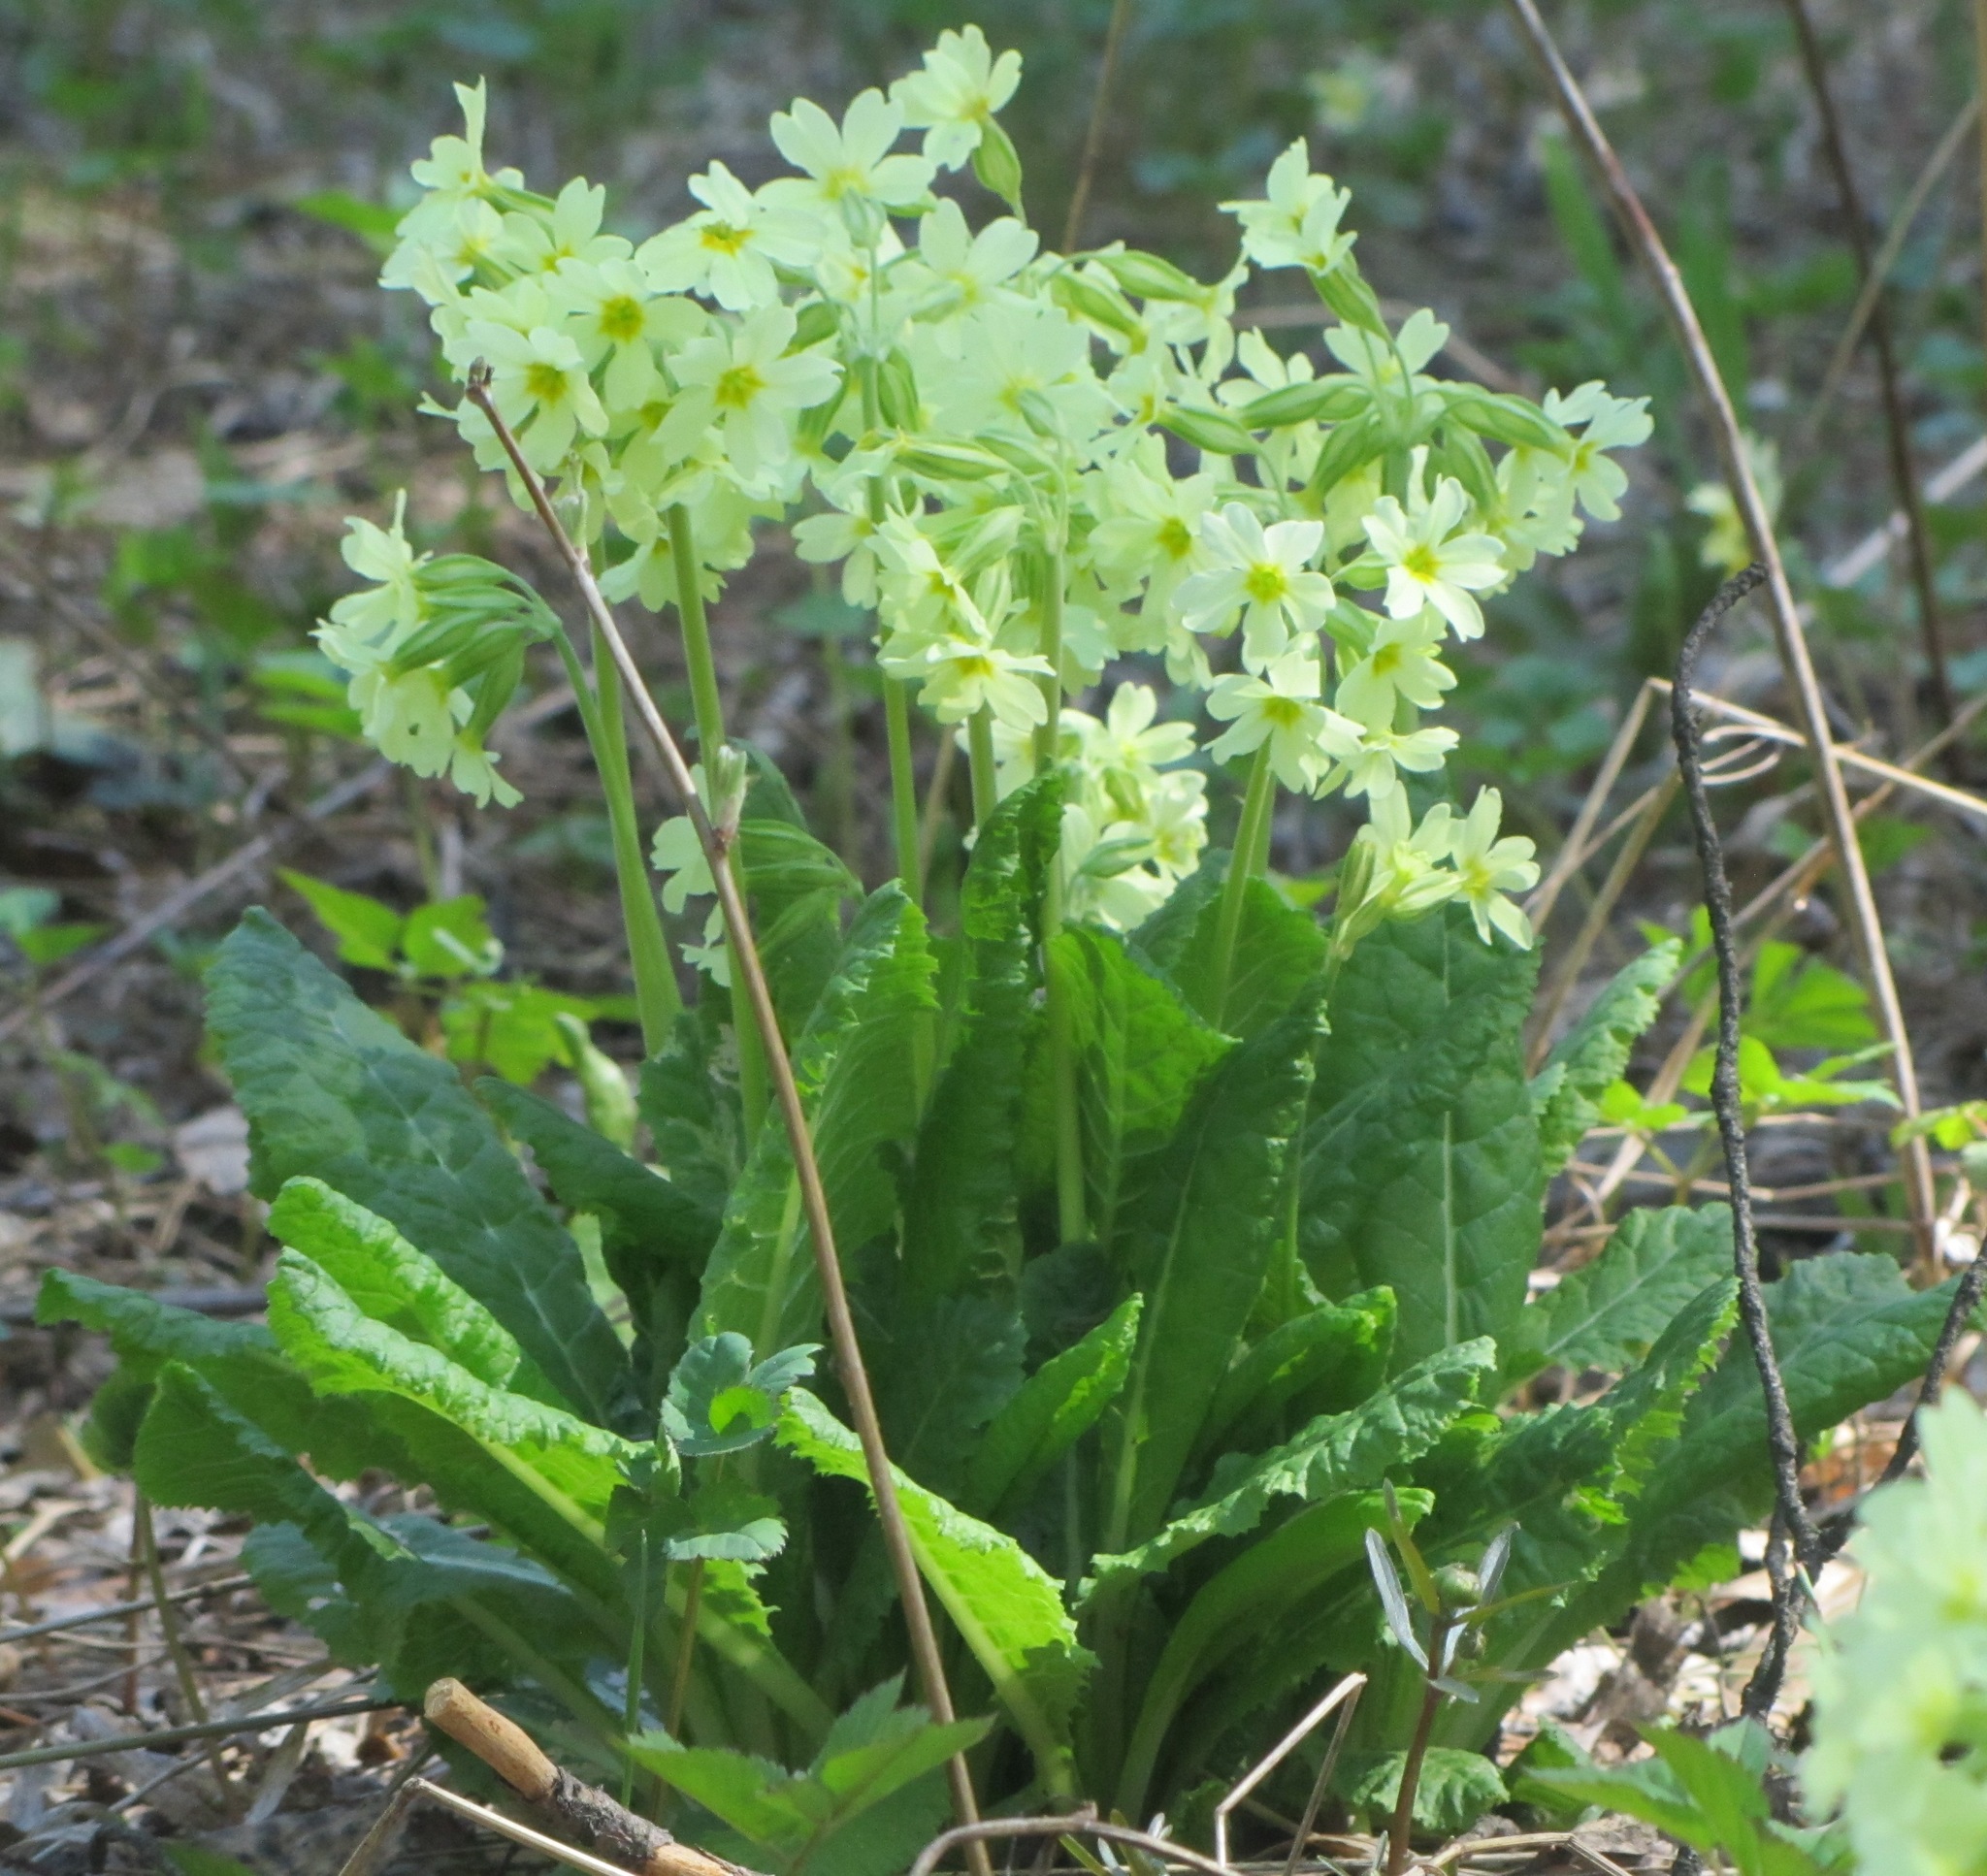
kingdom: Plantae
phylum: Tracheophyta
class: Magnoliopsida
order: Ericales
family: Primulaceae
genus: Primula
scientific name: Primula elatior
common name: Oxlip
